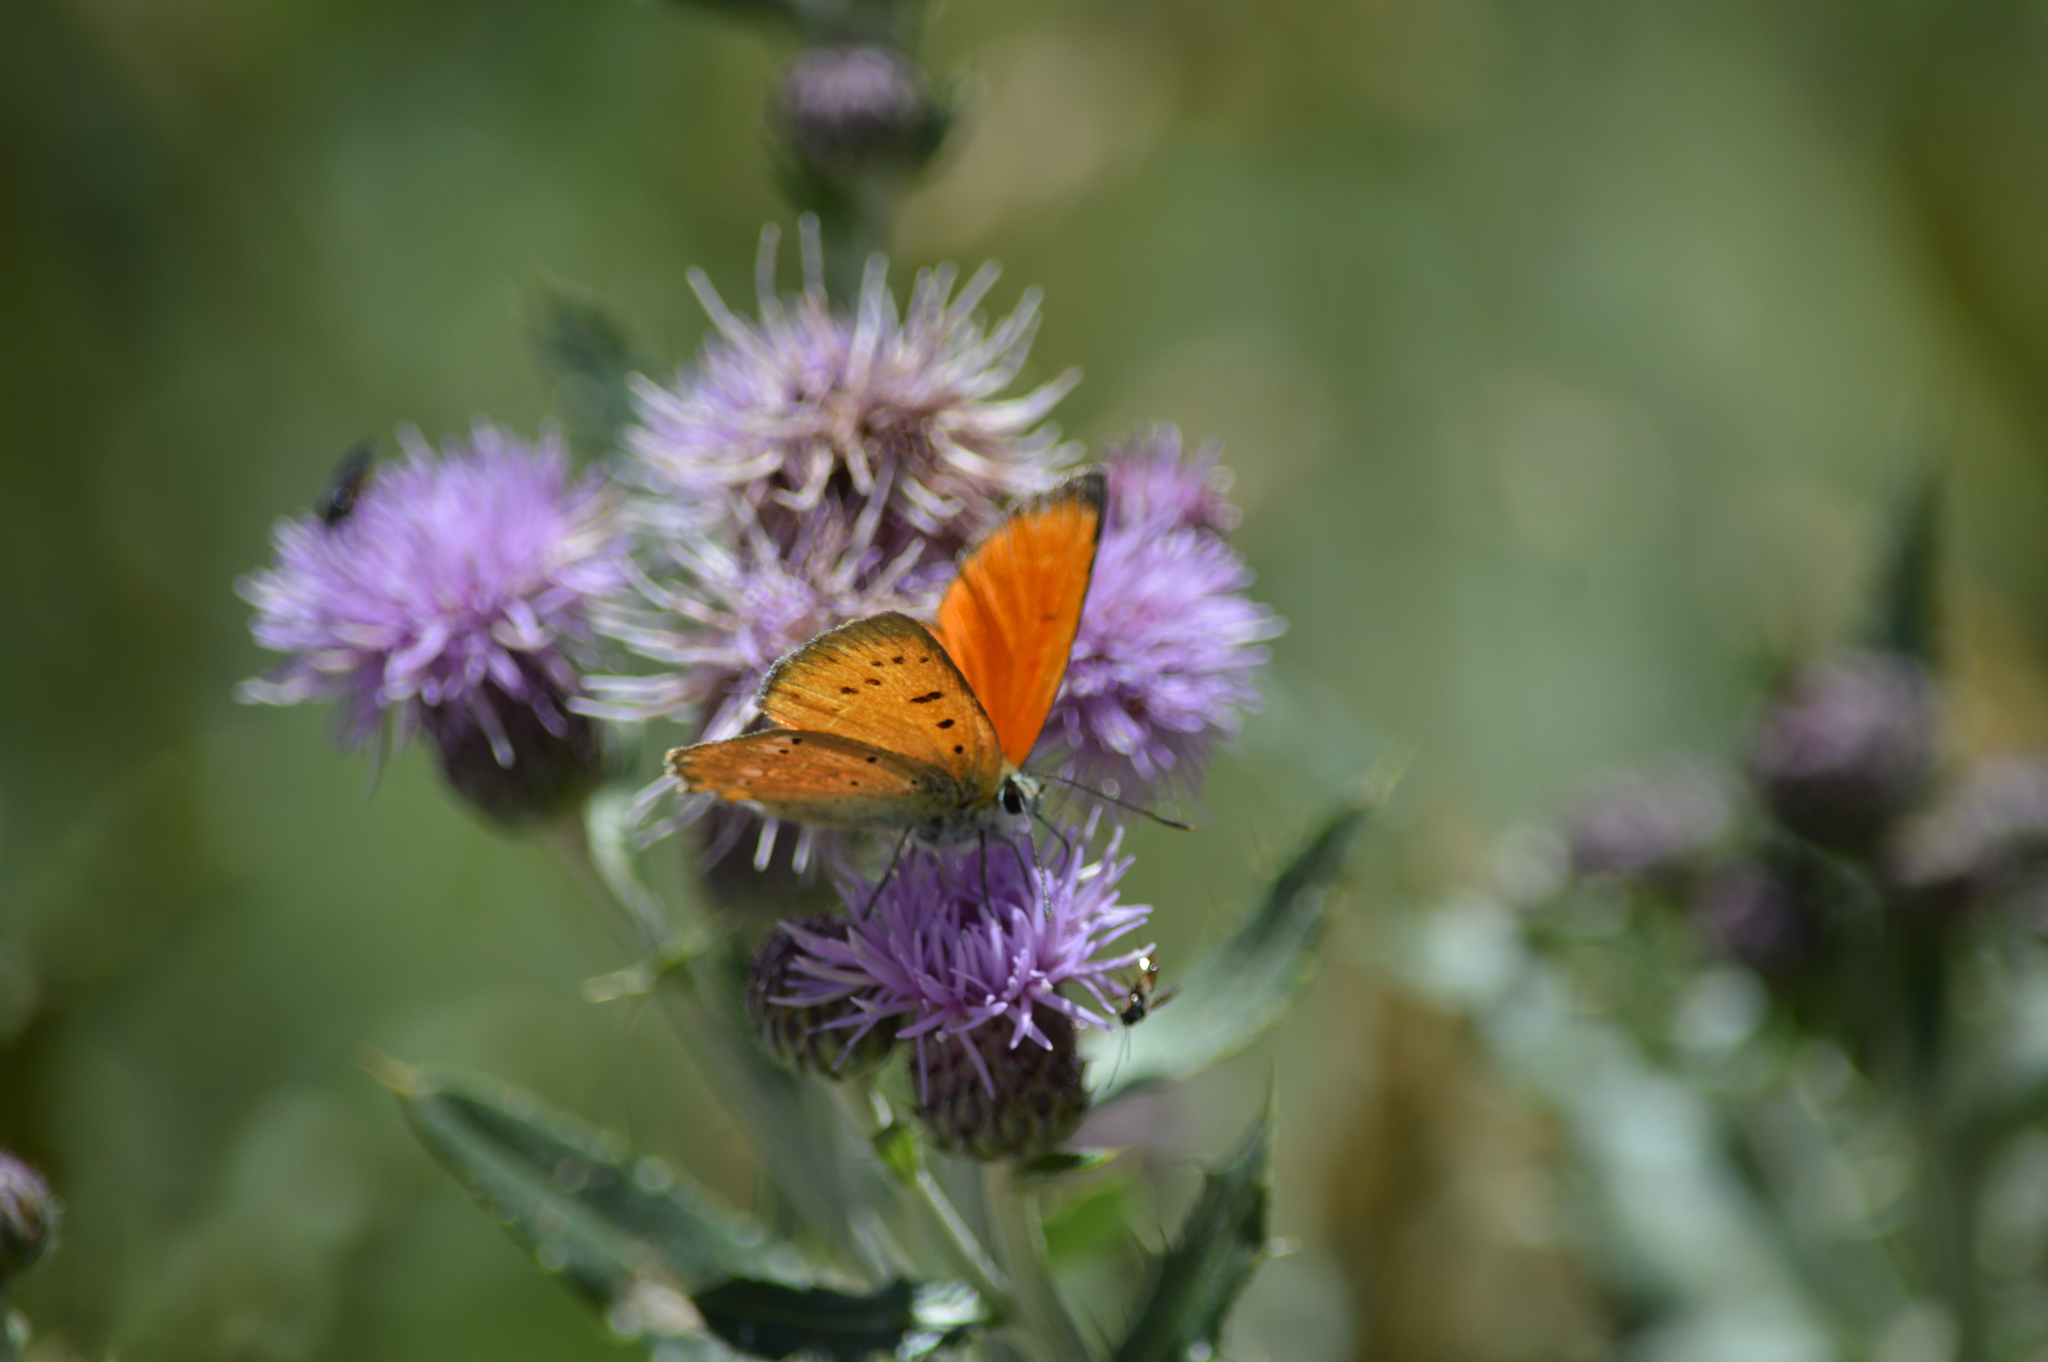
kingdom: Animalia
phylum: Arthropoda
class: Insecta
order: Lepidoptera
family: Lycaenidae
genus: Lycaena
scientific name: Lycaena virgaureae
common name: Scarce copper
